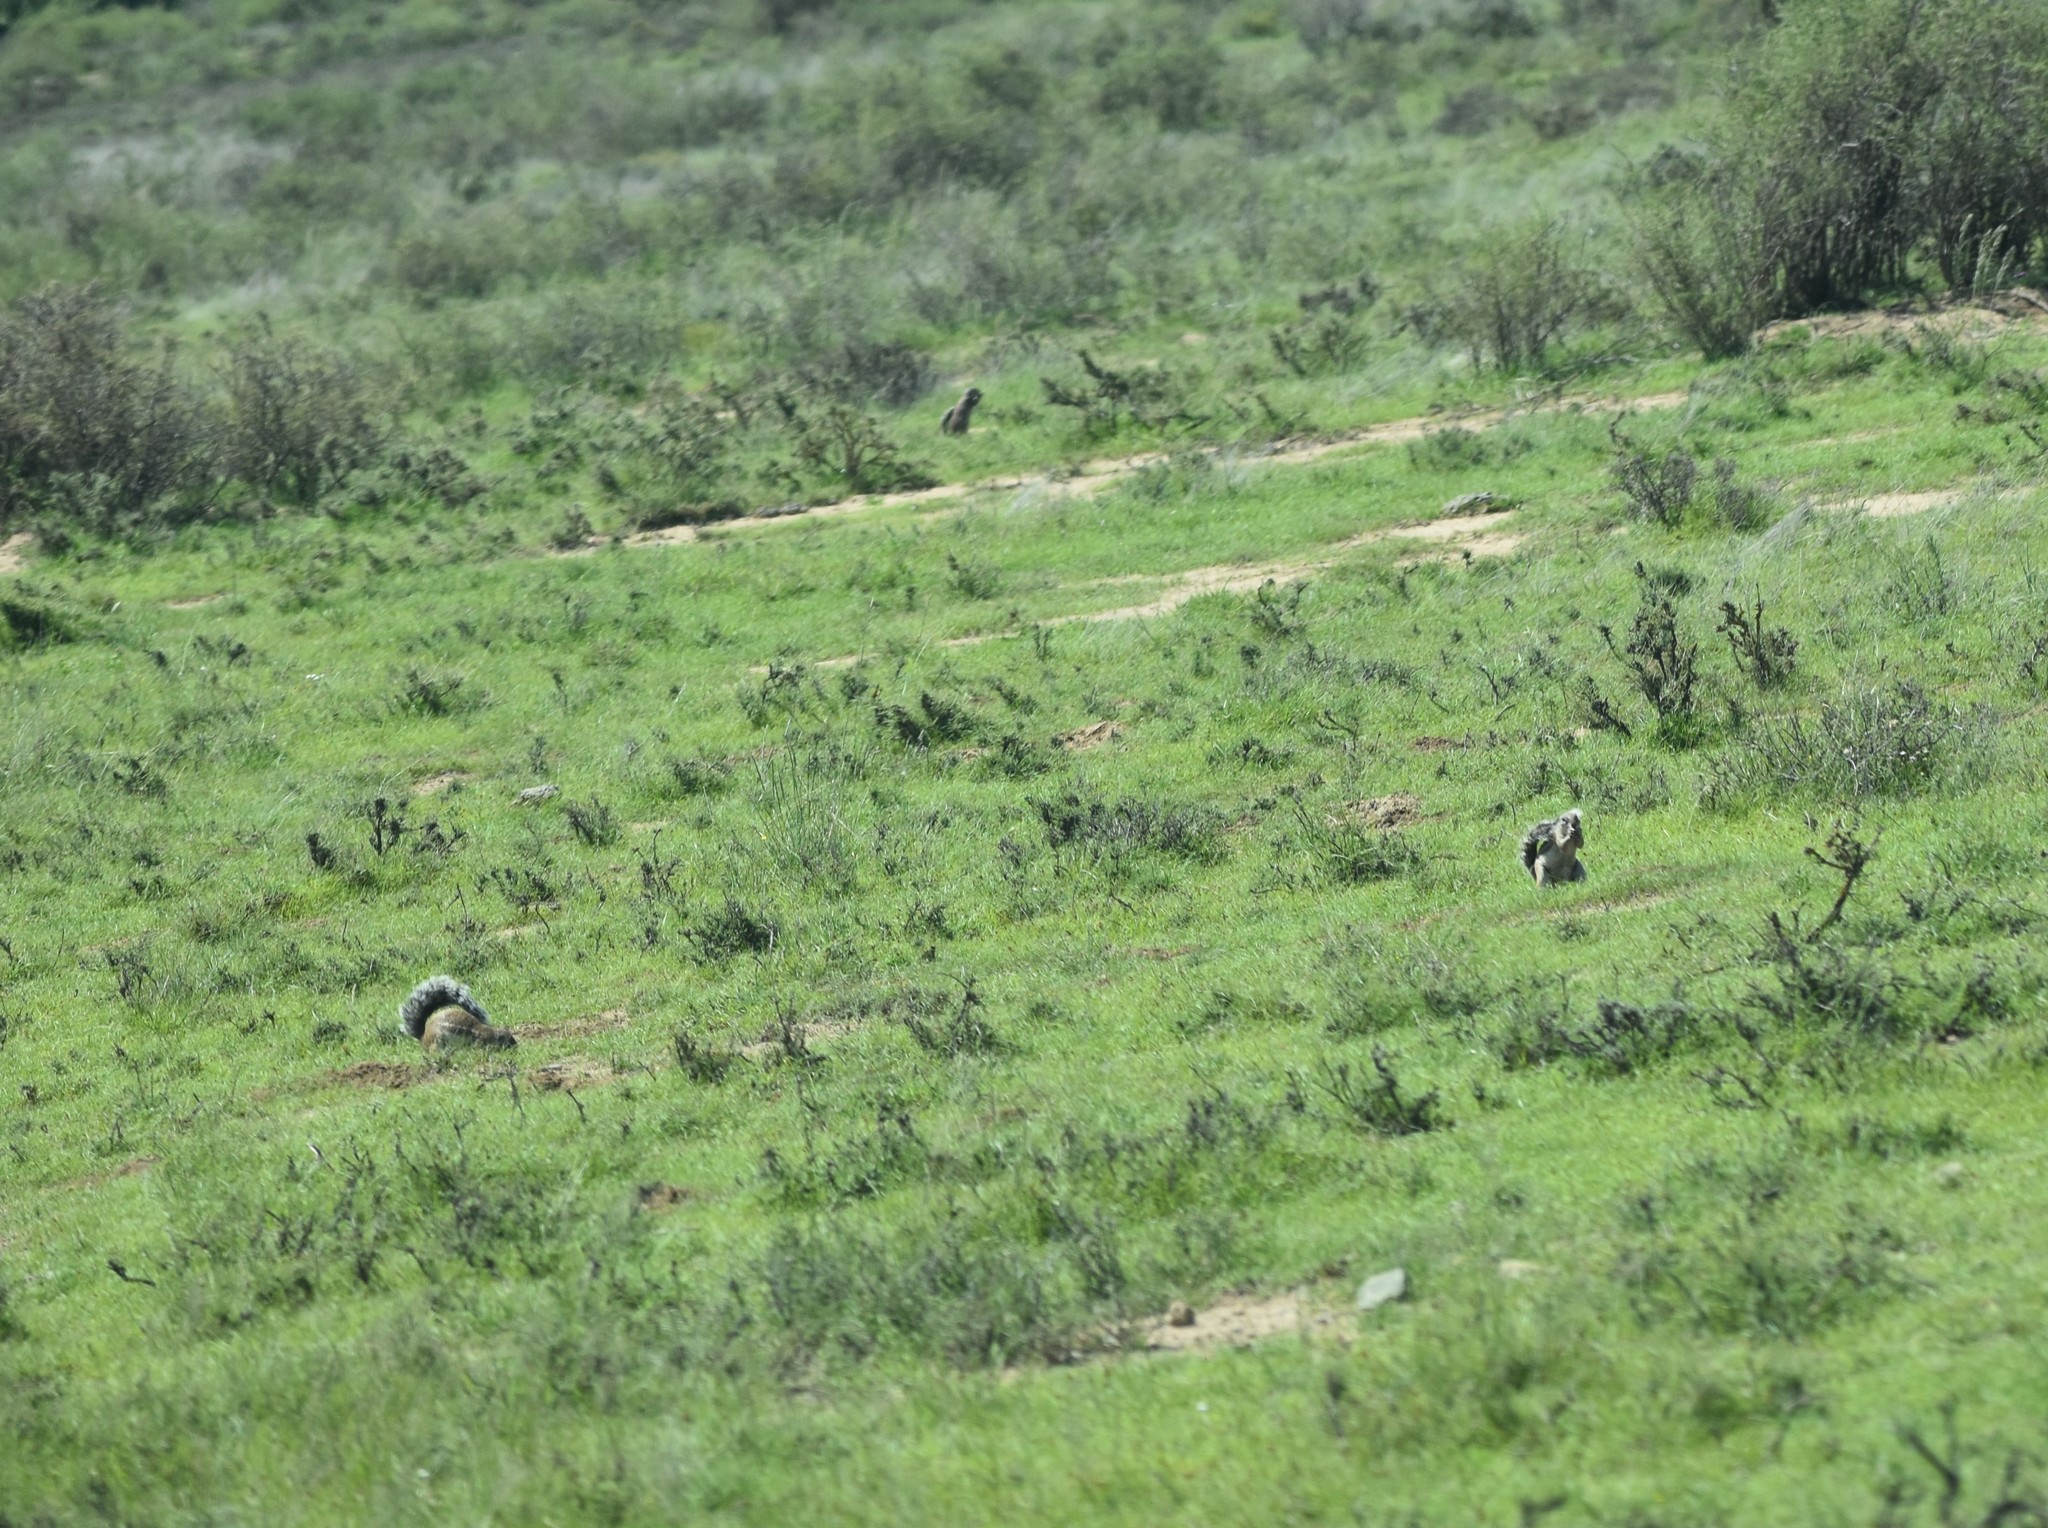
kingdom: Animalia
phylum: Chordata
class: Mammalia
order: Rodentia
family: Sciuridae
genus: Xerus
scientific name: Xerus inauris
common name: South african ground squirrel
